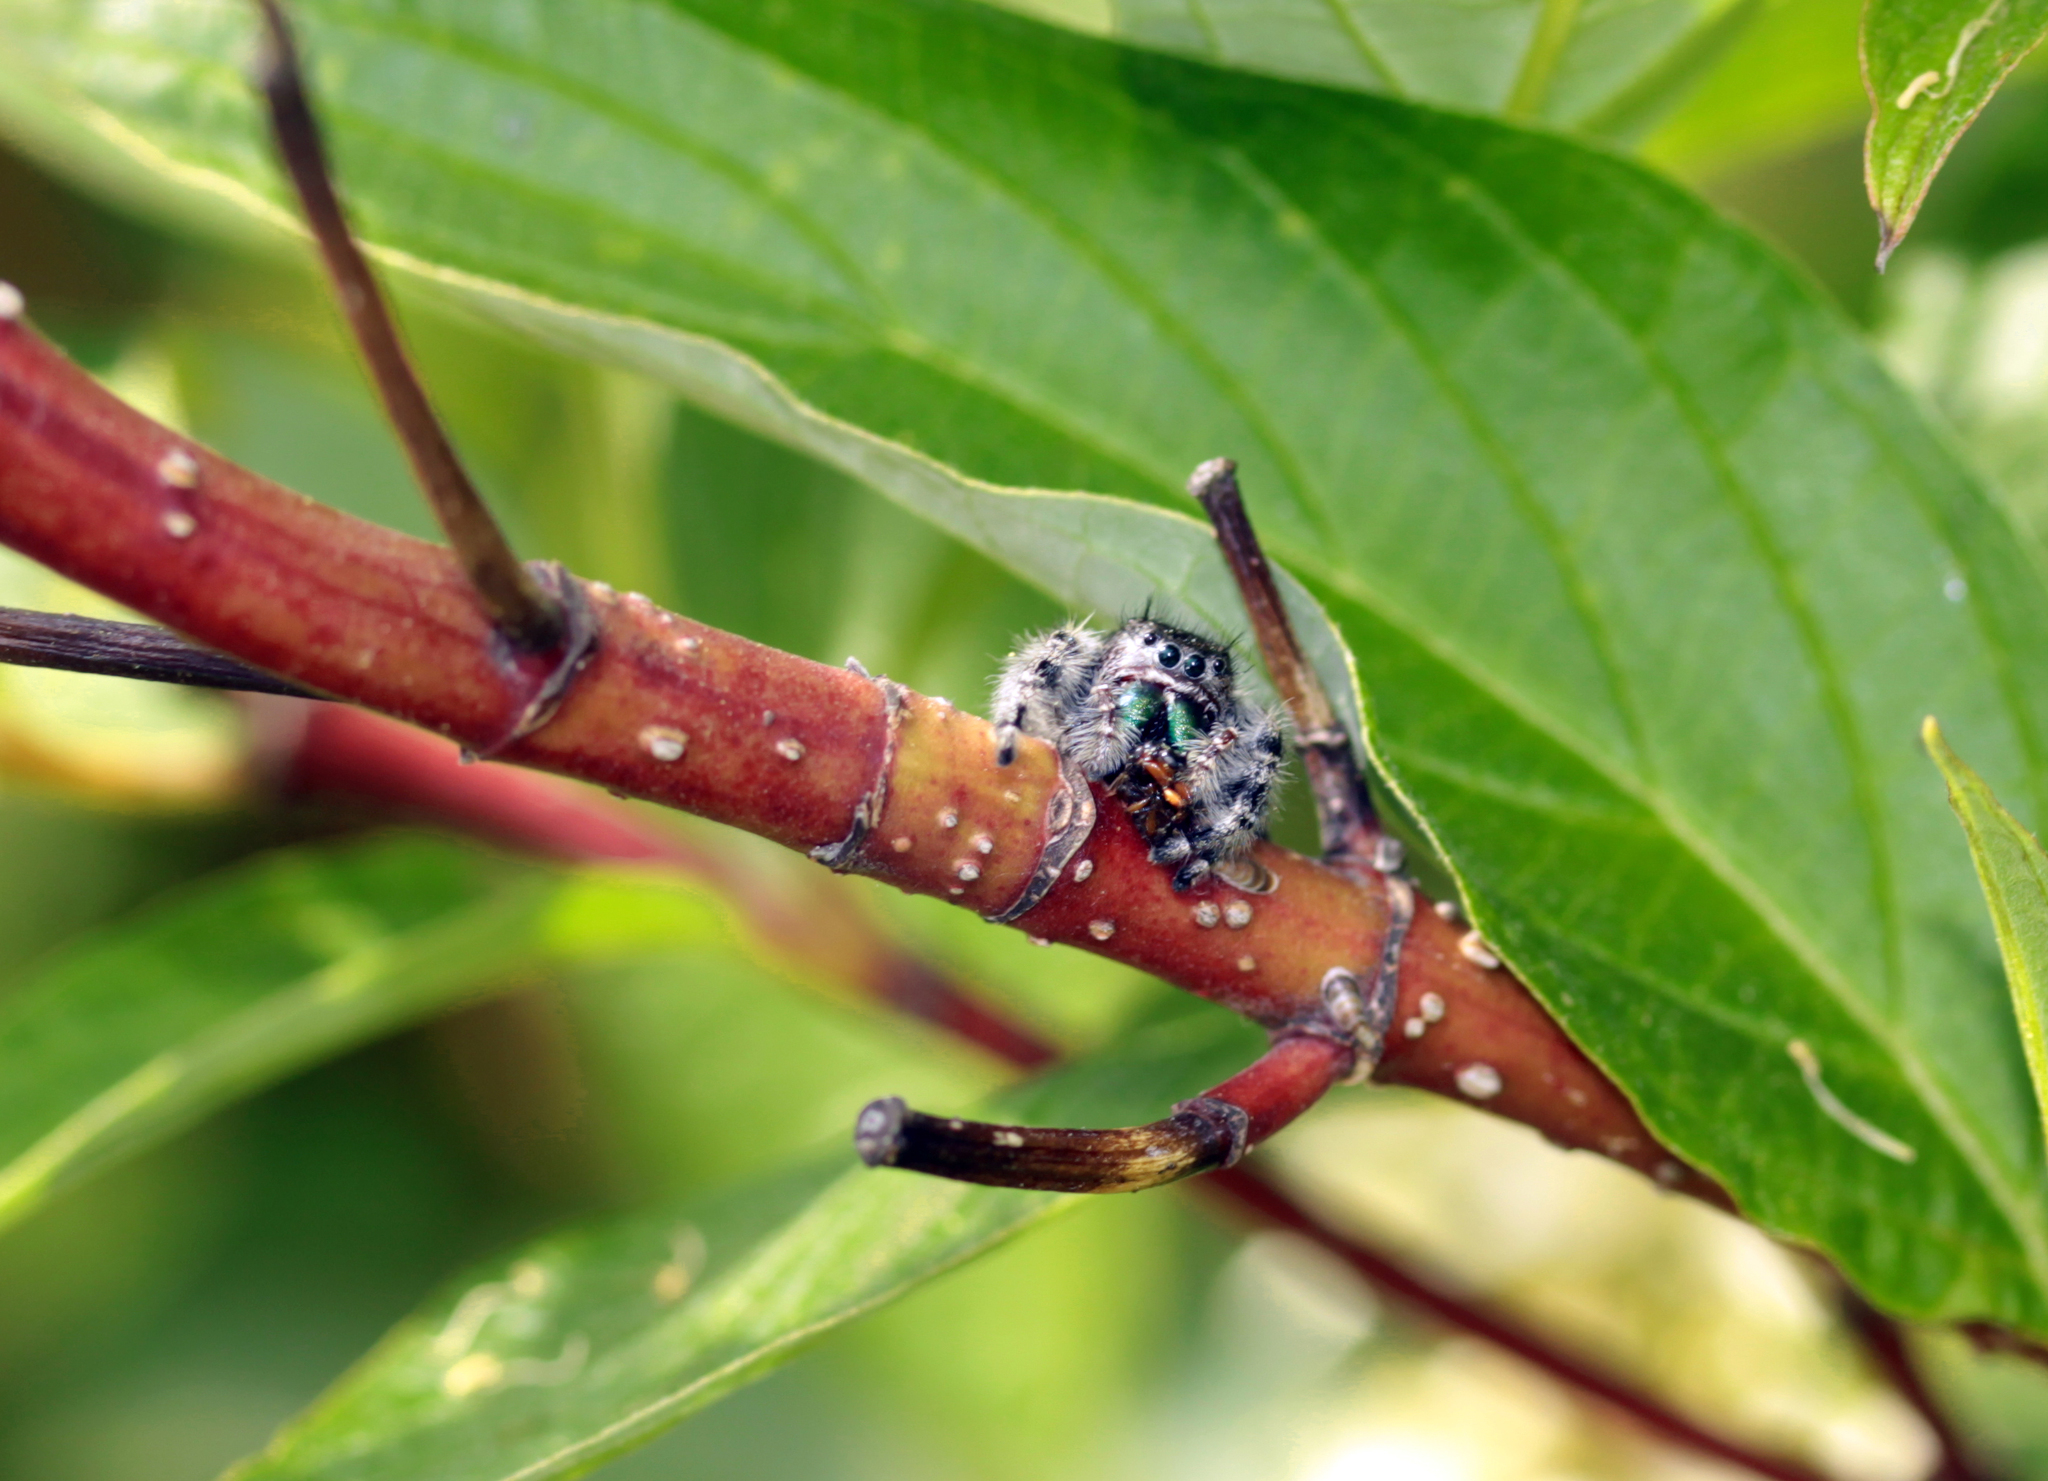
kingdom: Animalia
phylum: Arthropoda
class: Arachnida
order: Araneae
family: Salticidae
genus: Phidippus
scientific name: Phidippus audax
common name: Bold jumper
